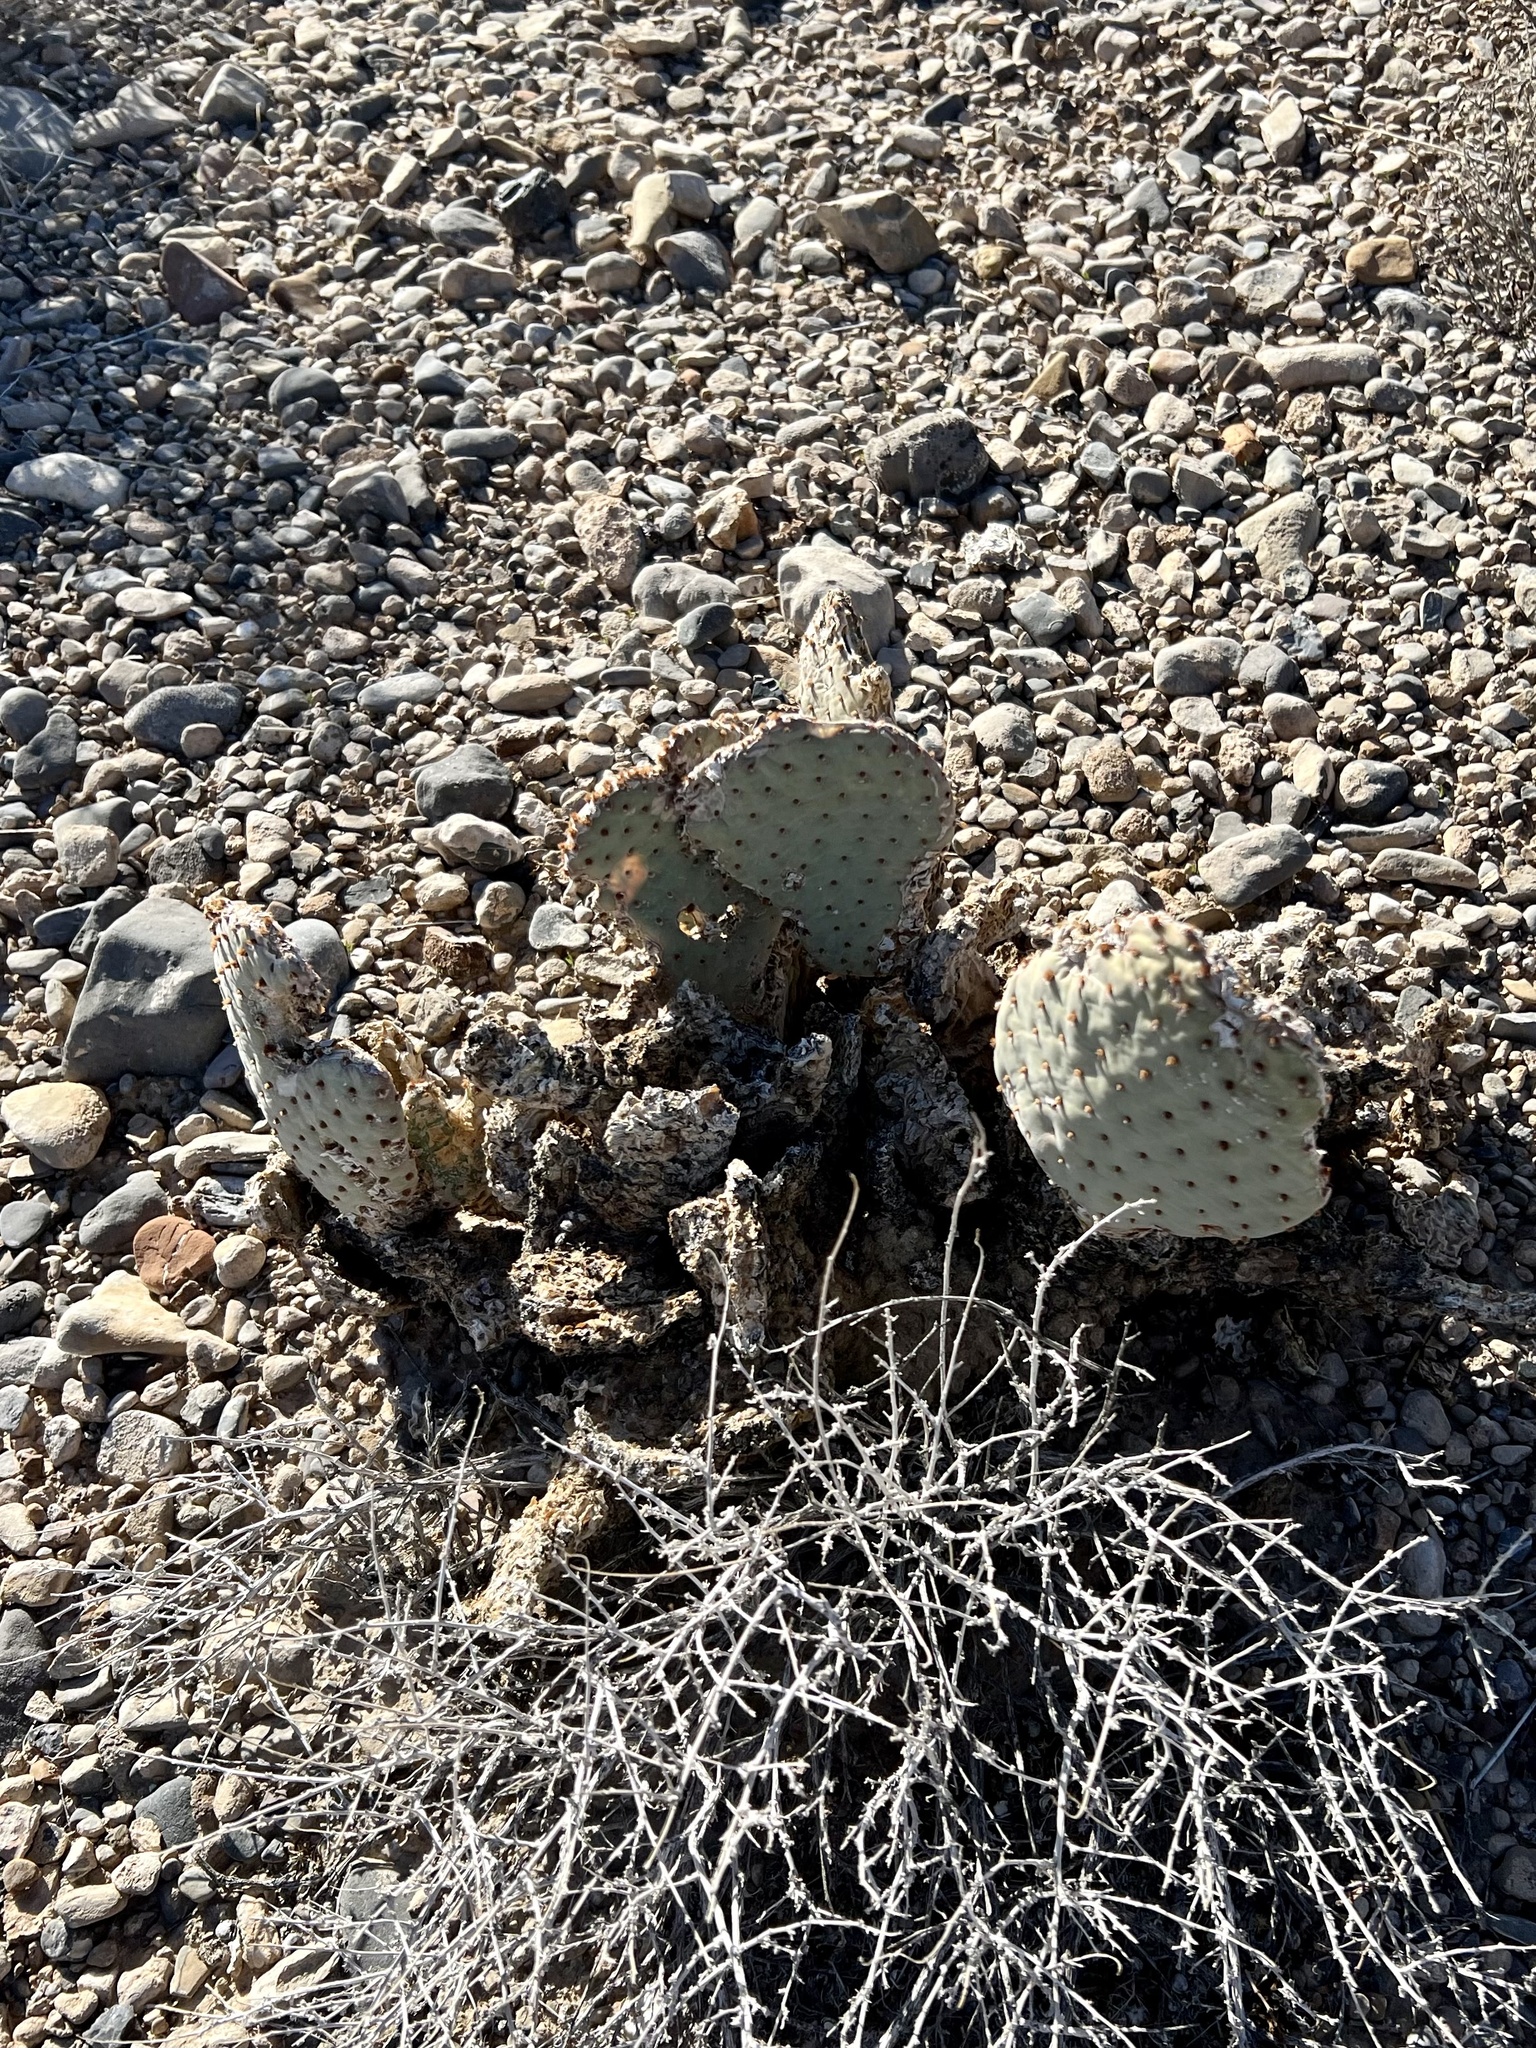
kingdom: Plantae
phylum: Tracheophyta
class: Magnoliopsida
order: Caryophyllales
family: Cactaceae
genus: Opuntia
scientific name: Opuntia basilaris
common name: Beavertail prickly-pear
